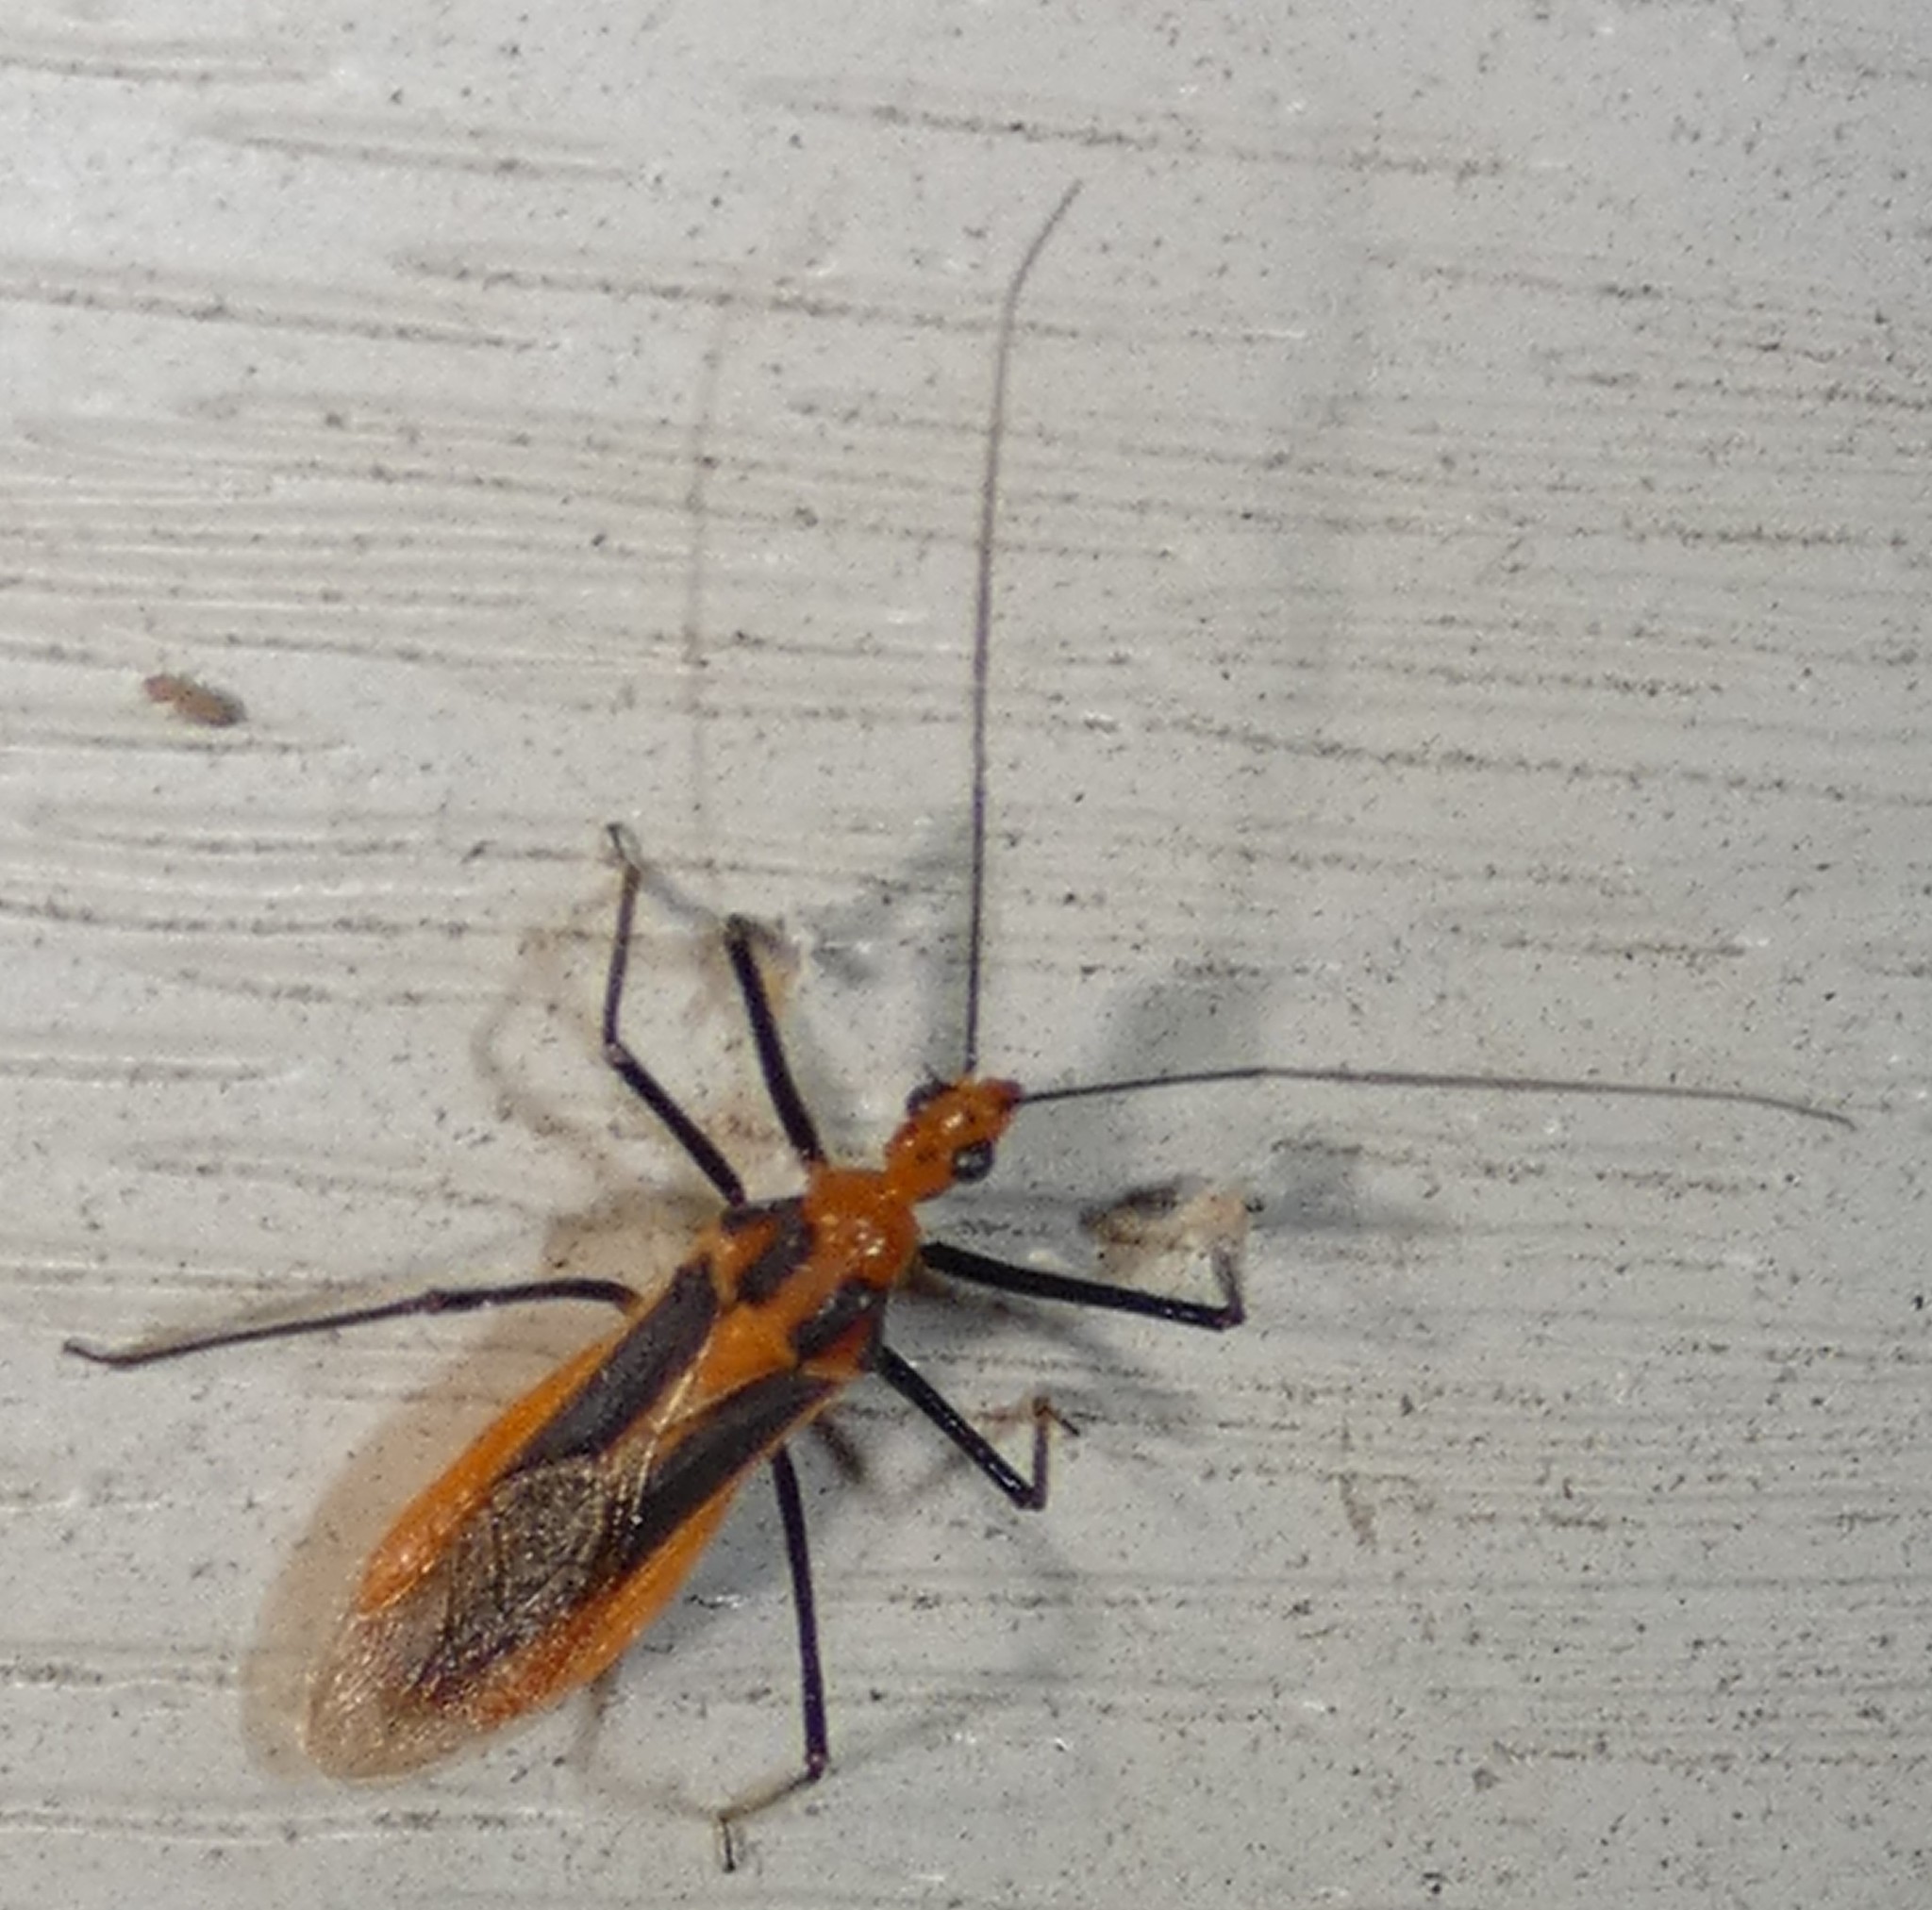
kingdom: Animalia
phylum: Arthropoda
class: Insecta
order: Hemiptera
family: Reduviidae
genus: Repipta
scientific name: Repipta taurus
